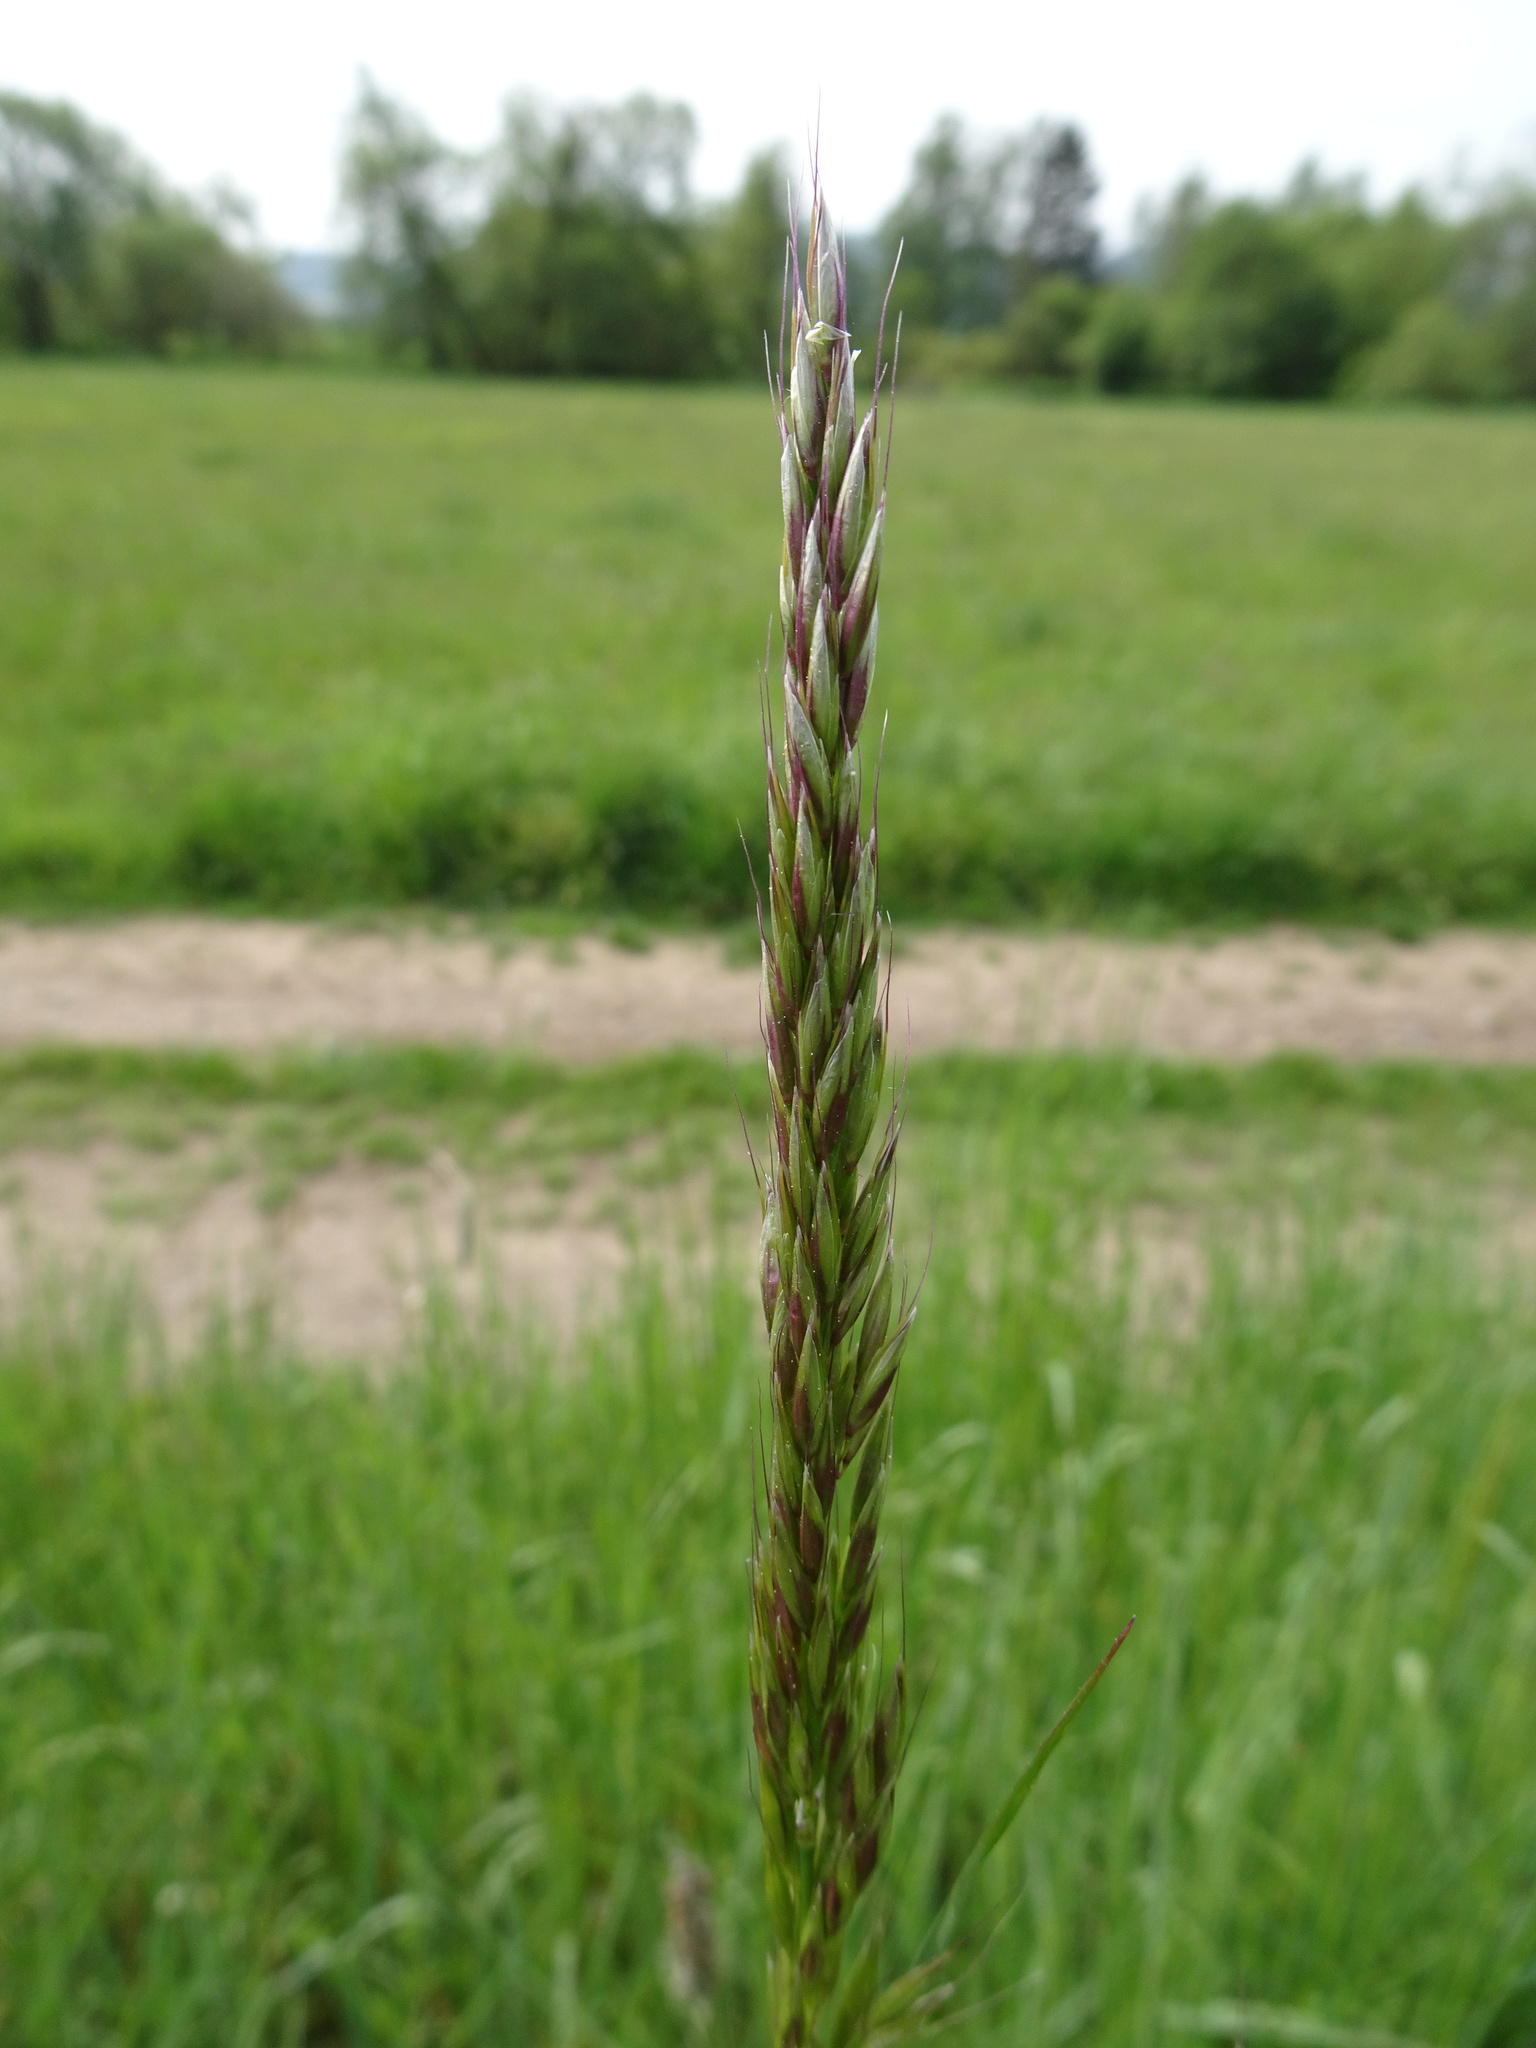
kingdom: Plantae
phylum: Tracheophyta
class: Liliopsida
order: Poales
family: Poaceae
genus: Arrhenatherum
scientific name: Arrhenatherum elatius
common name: Tall oatgrass
